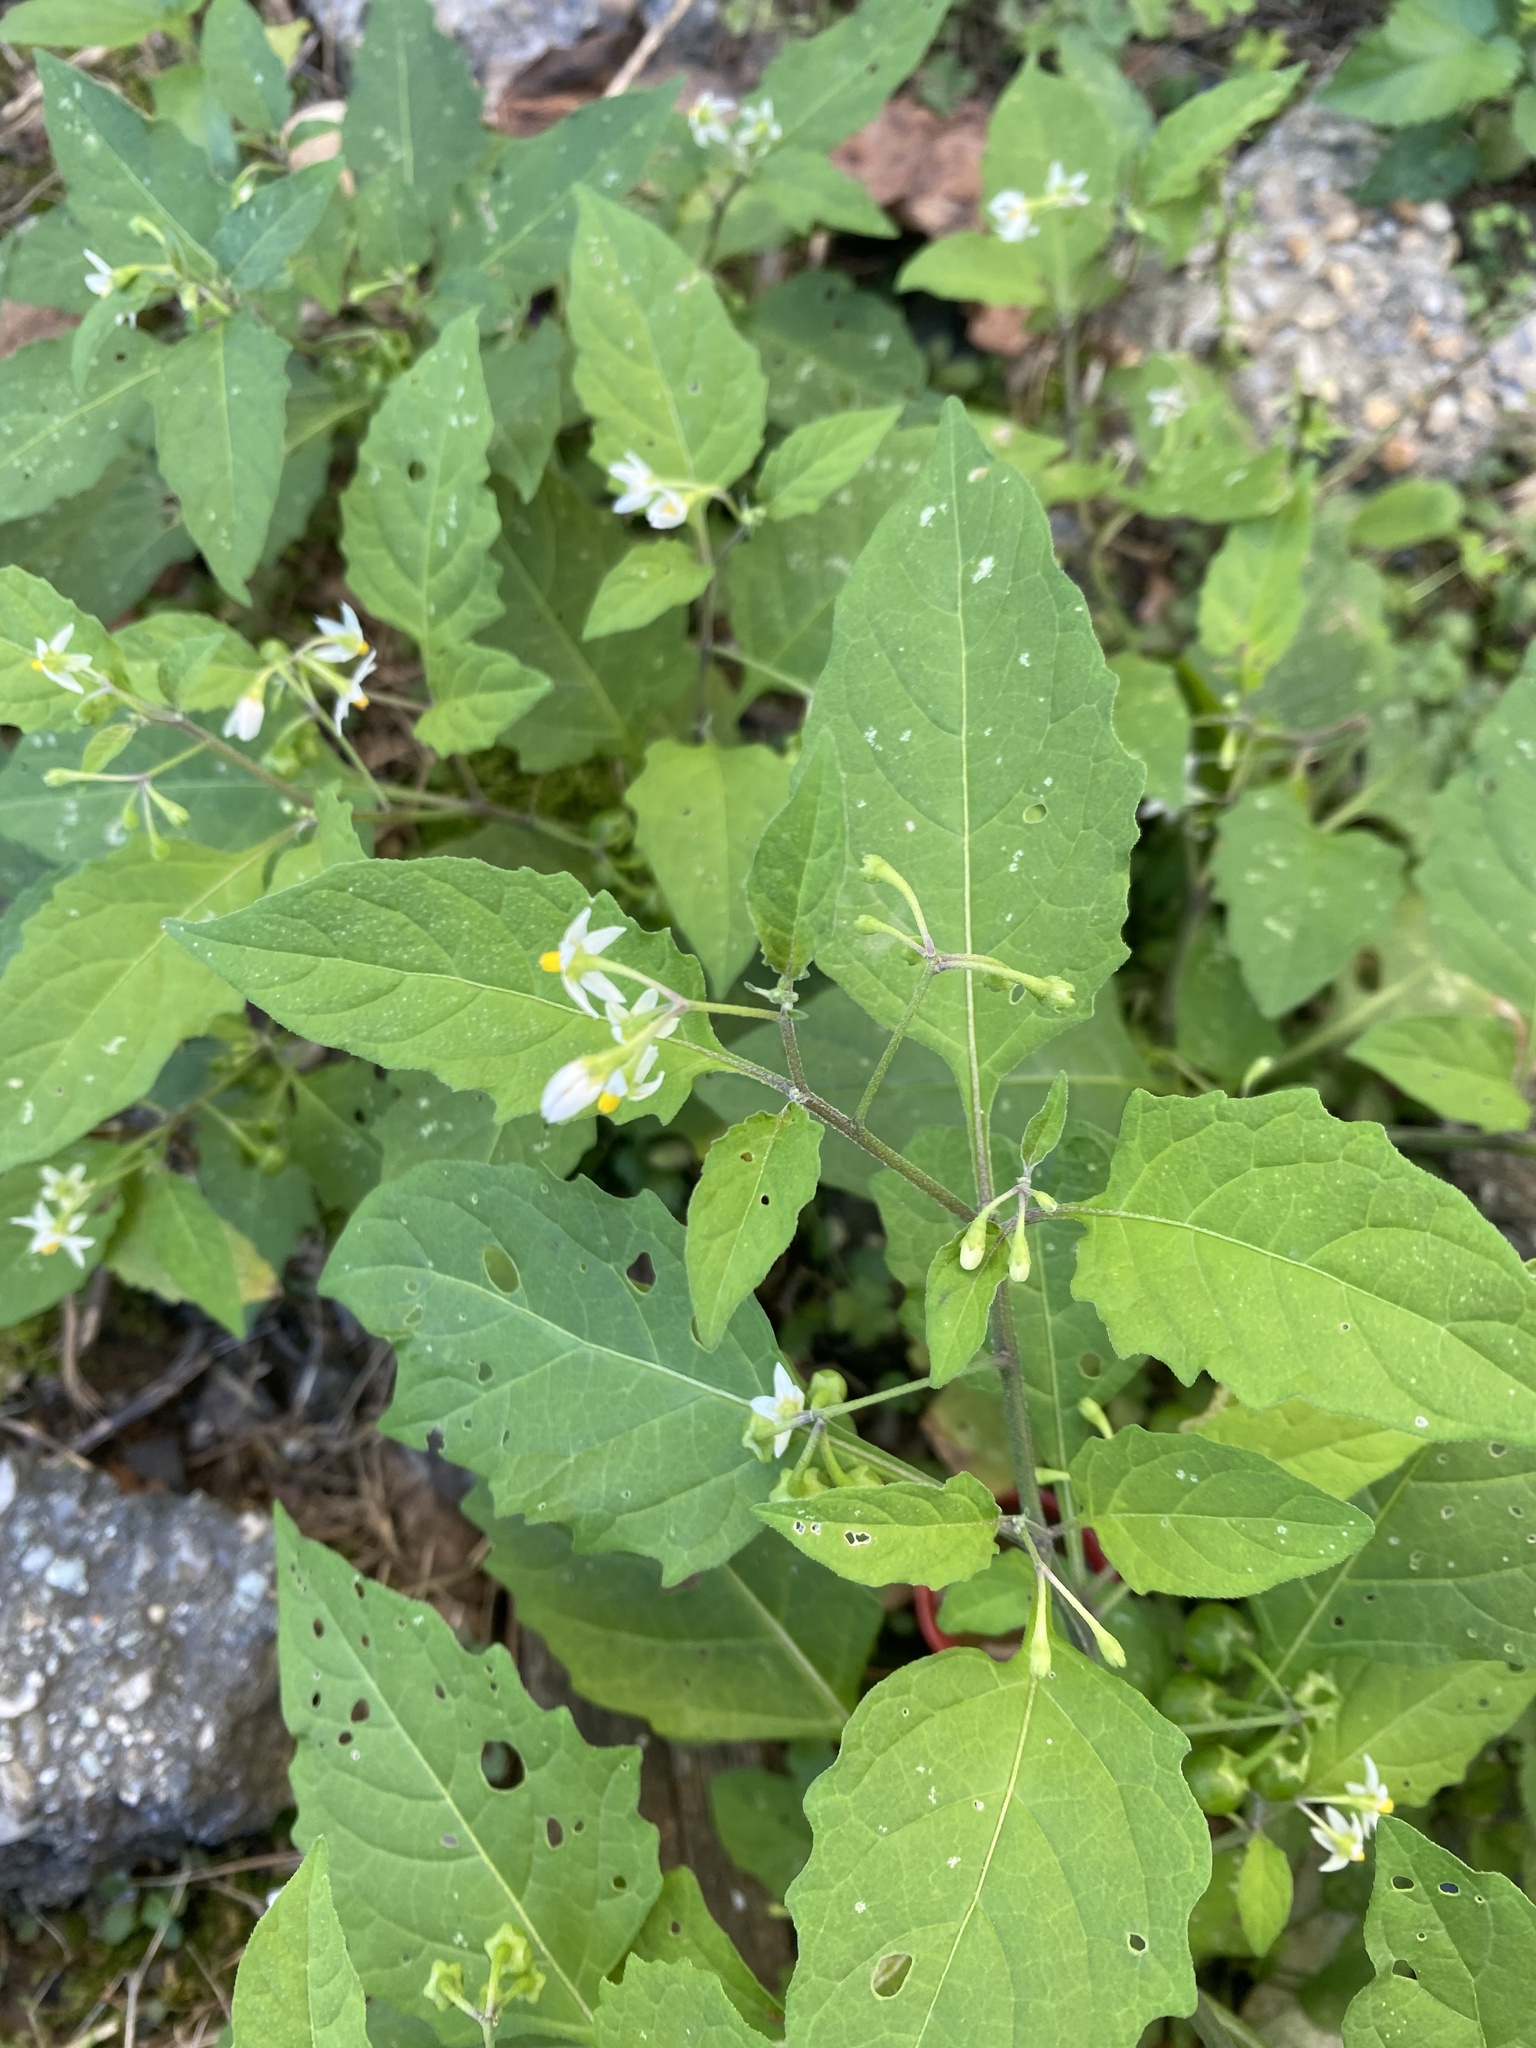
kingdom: Plantae
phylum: Tracheophyta
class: Magnoliopsida
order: Solanales
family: Solanaceae
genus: Solanum
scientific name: Solanum emulans
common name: Eastern black nightshade
